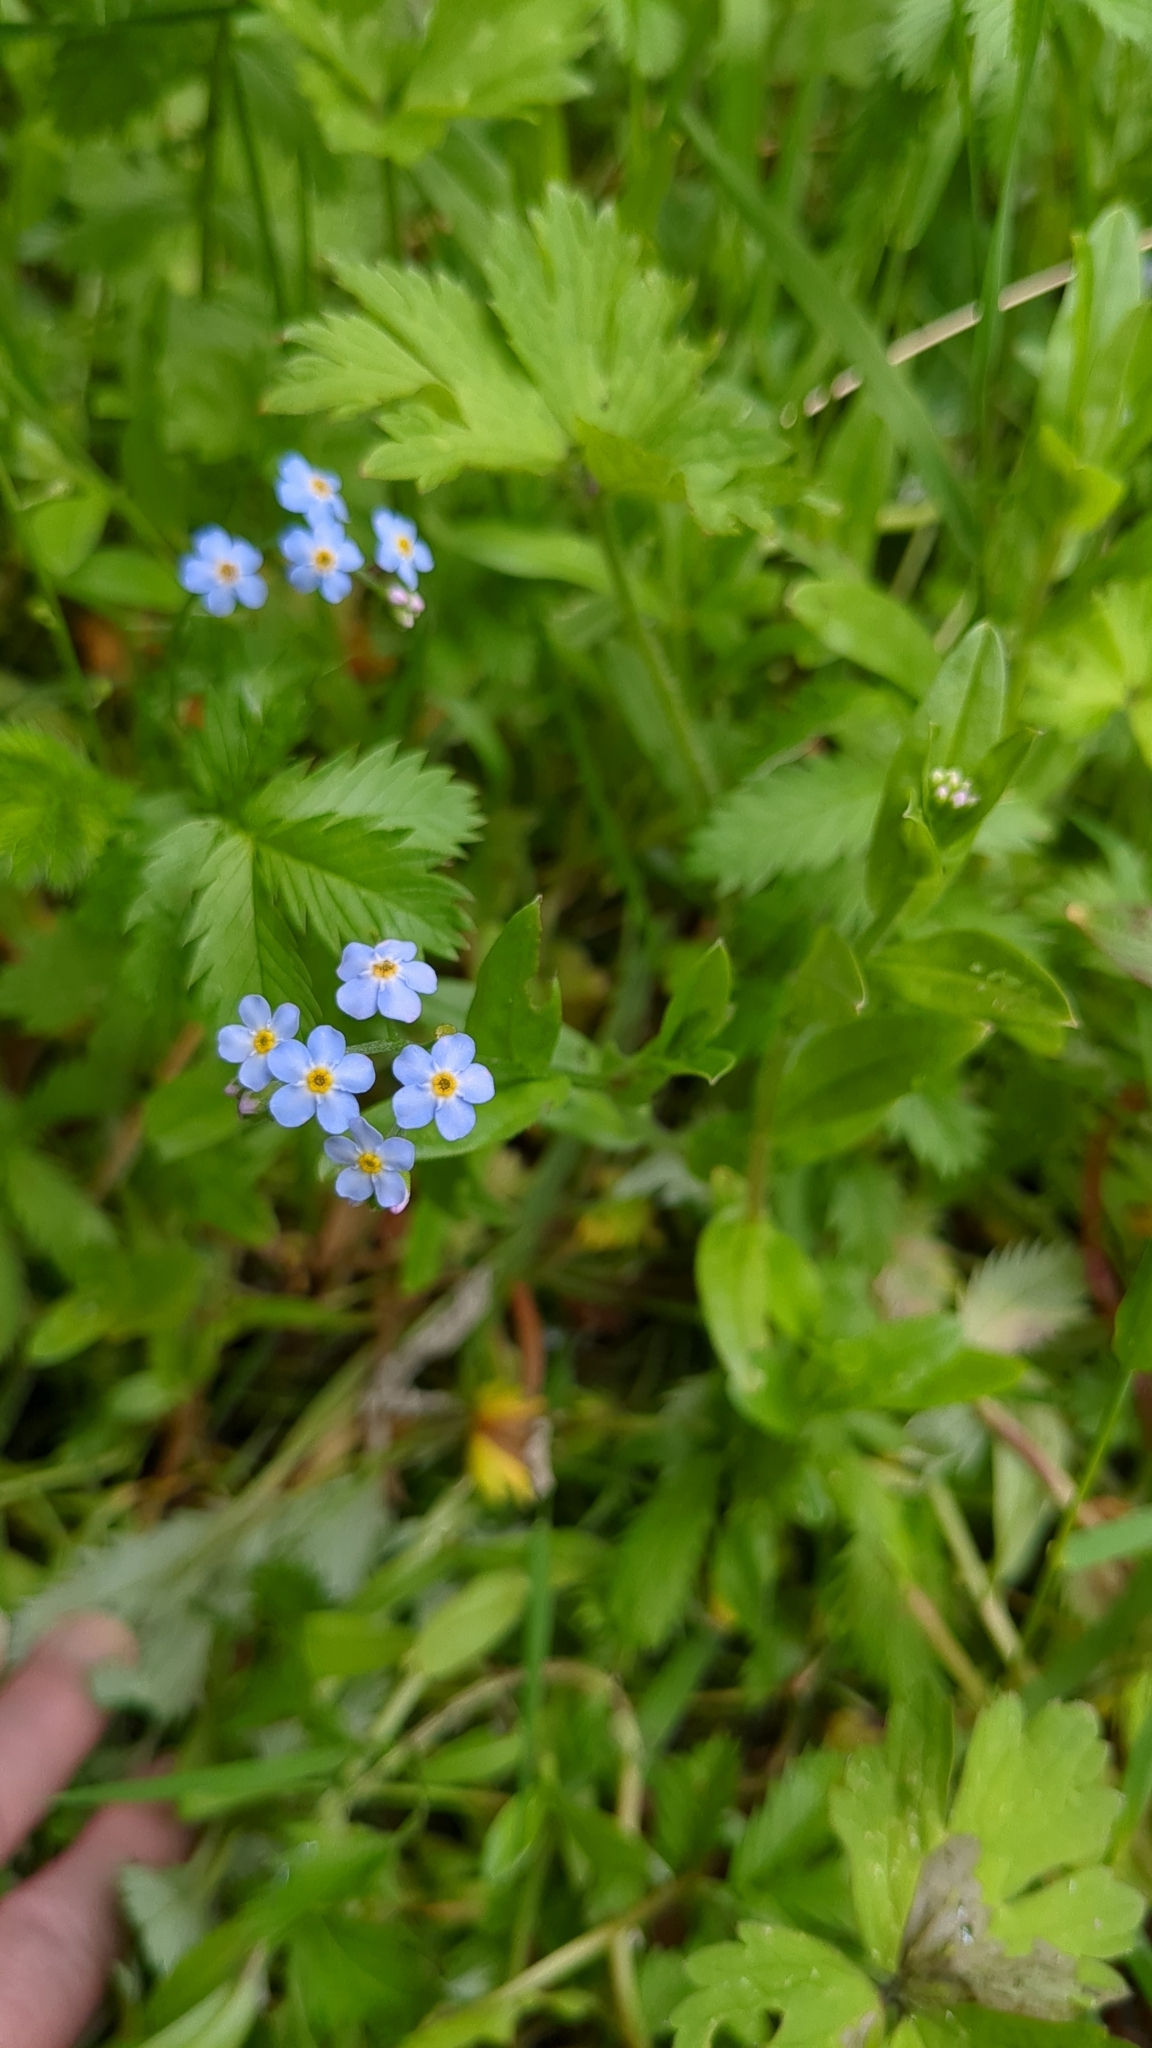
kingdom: Plantae
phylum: Tracheophyta
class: Magnoliopsida
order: Boraginales
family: Boraginaceae
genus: Myosotis
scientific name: Myosotis scorpioides
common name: Water forget-me-not
